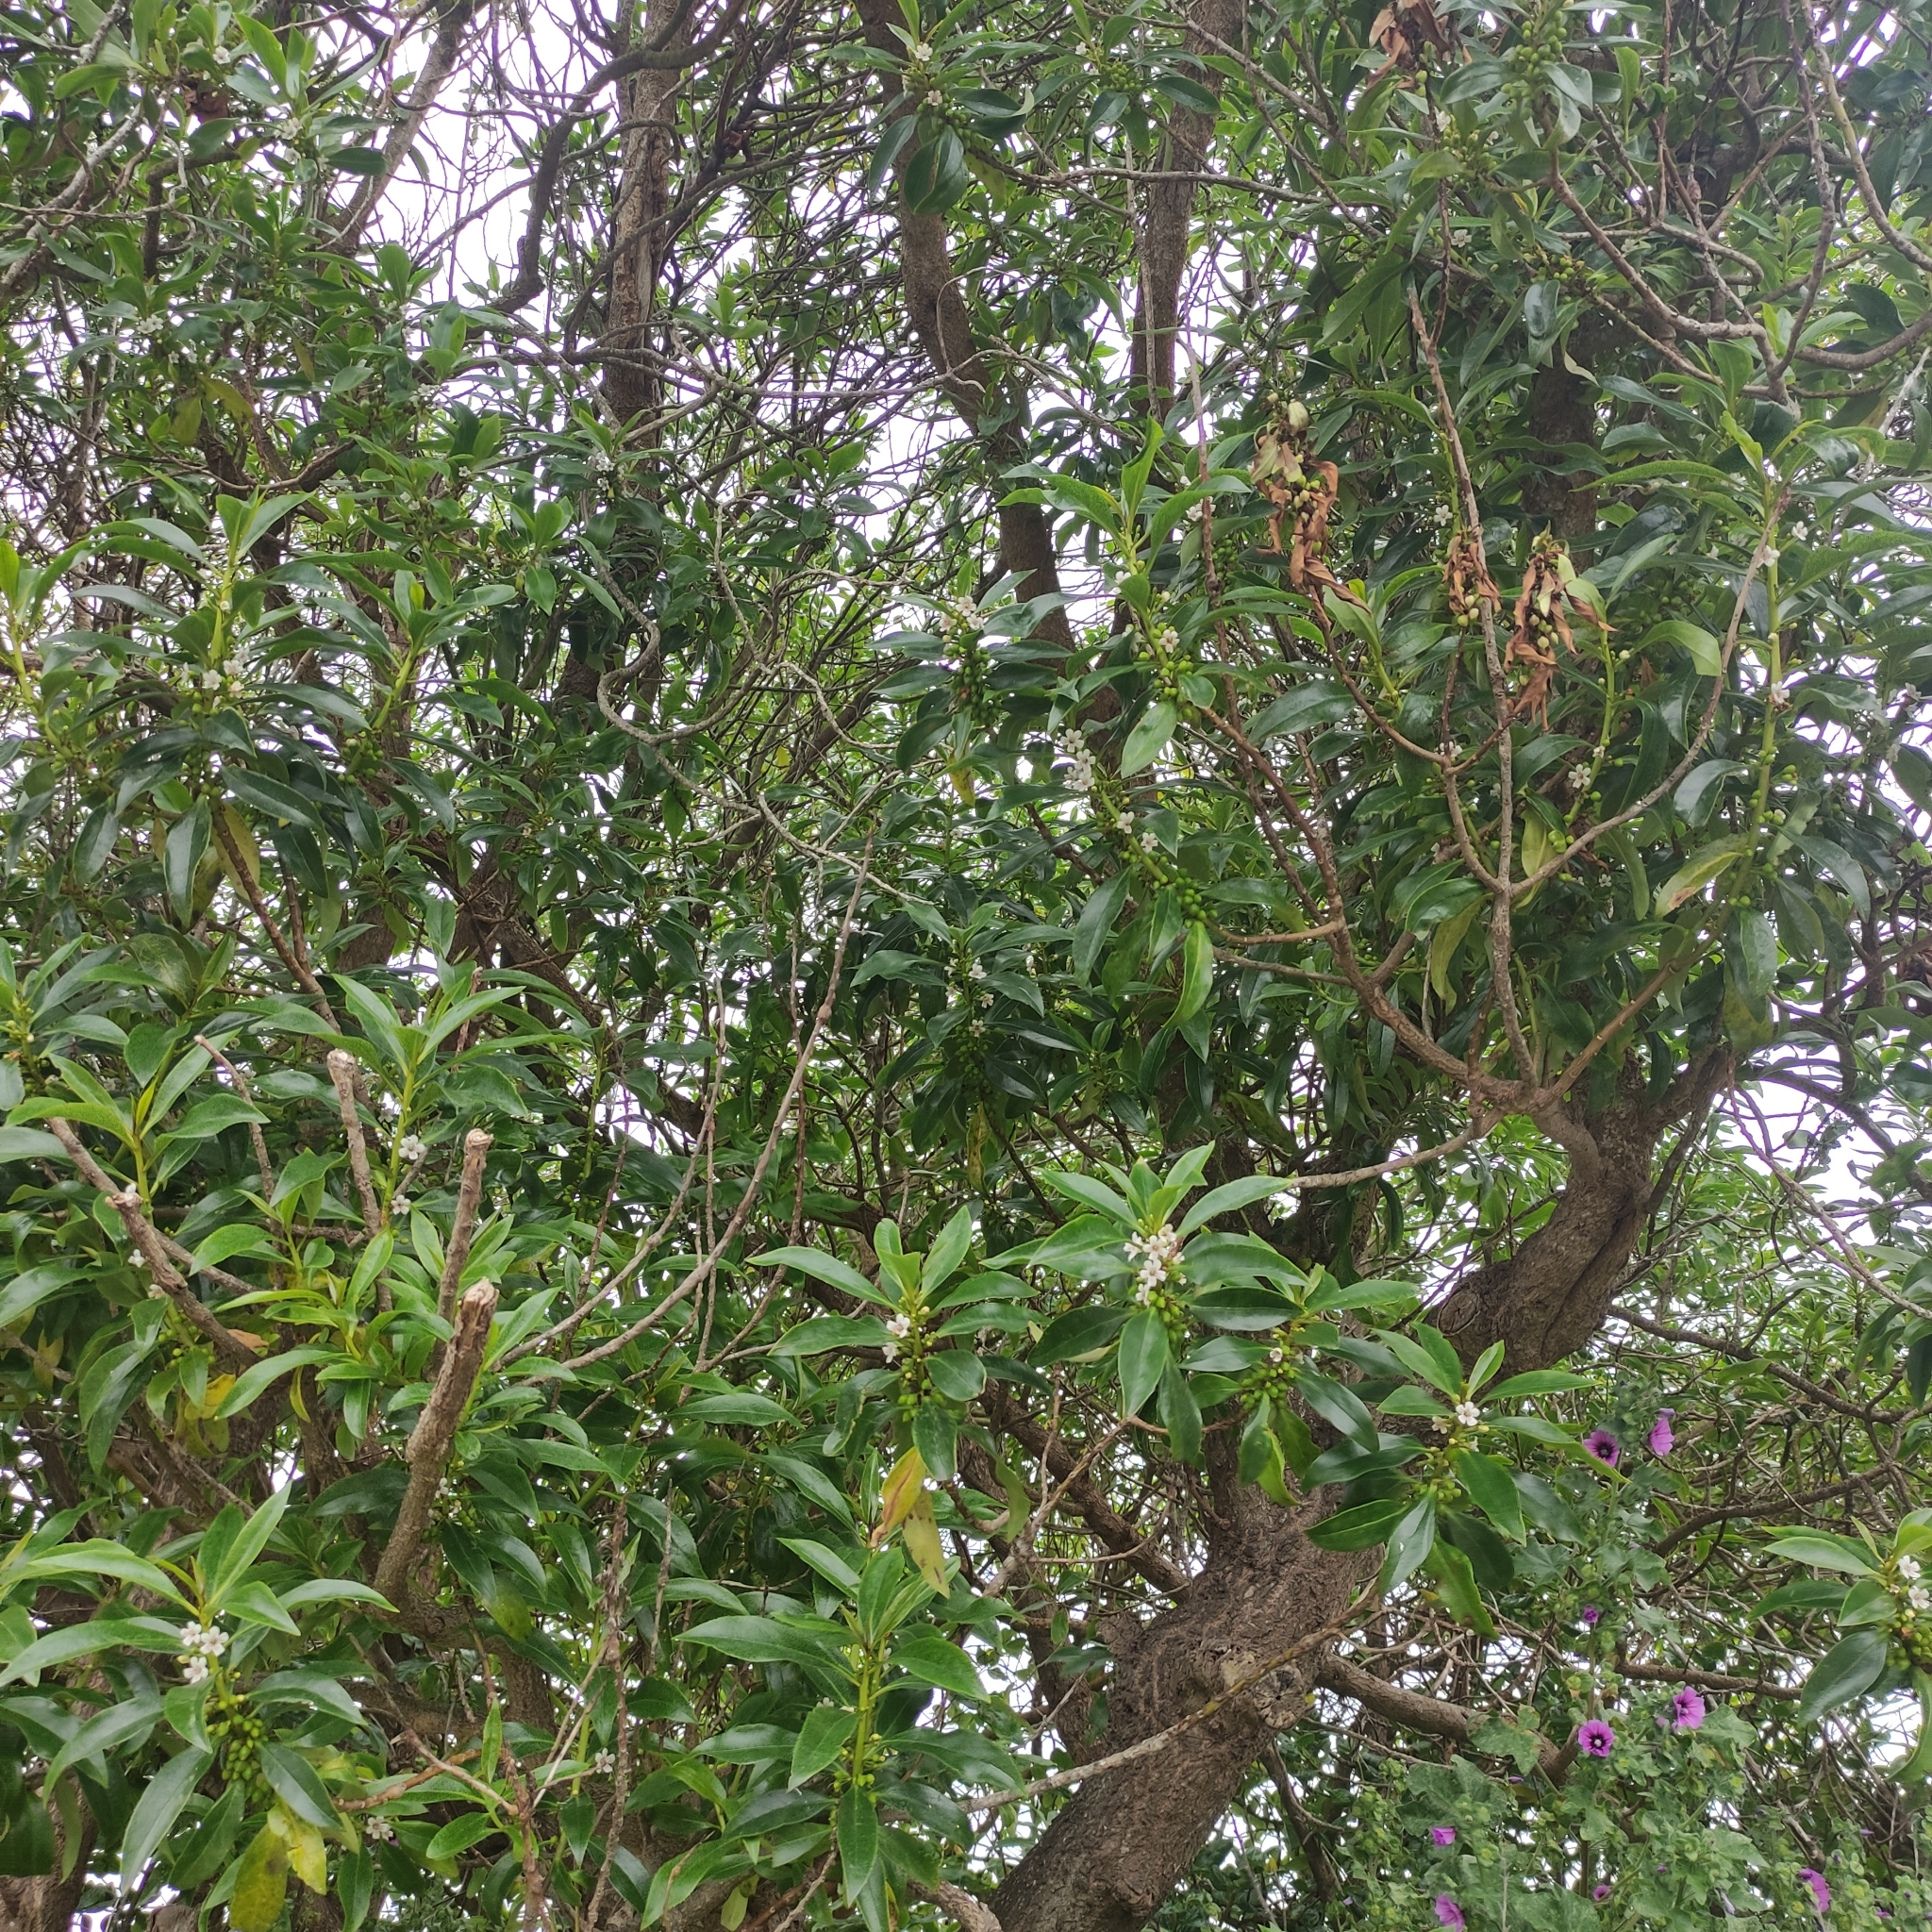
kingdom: Plantae
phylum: Tracheophyta
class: Magnoliopsida
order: Lamiales
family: Scrophulariaceae
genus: Myoporum
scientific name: Myoporum laetum
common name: Ngaio tree
